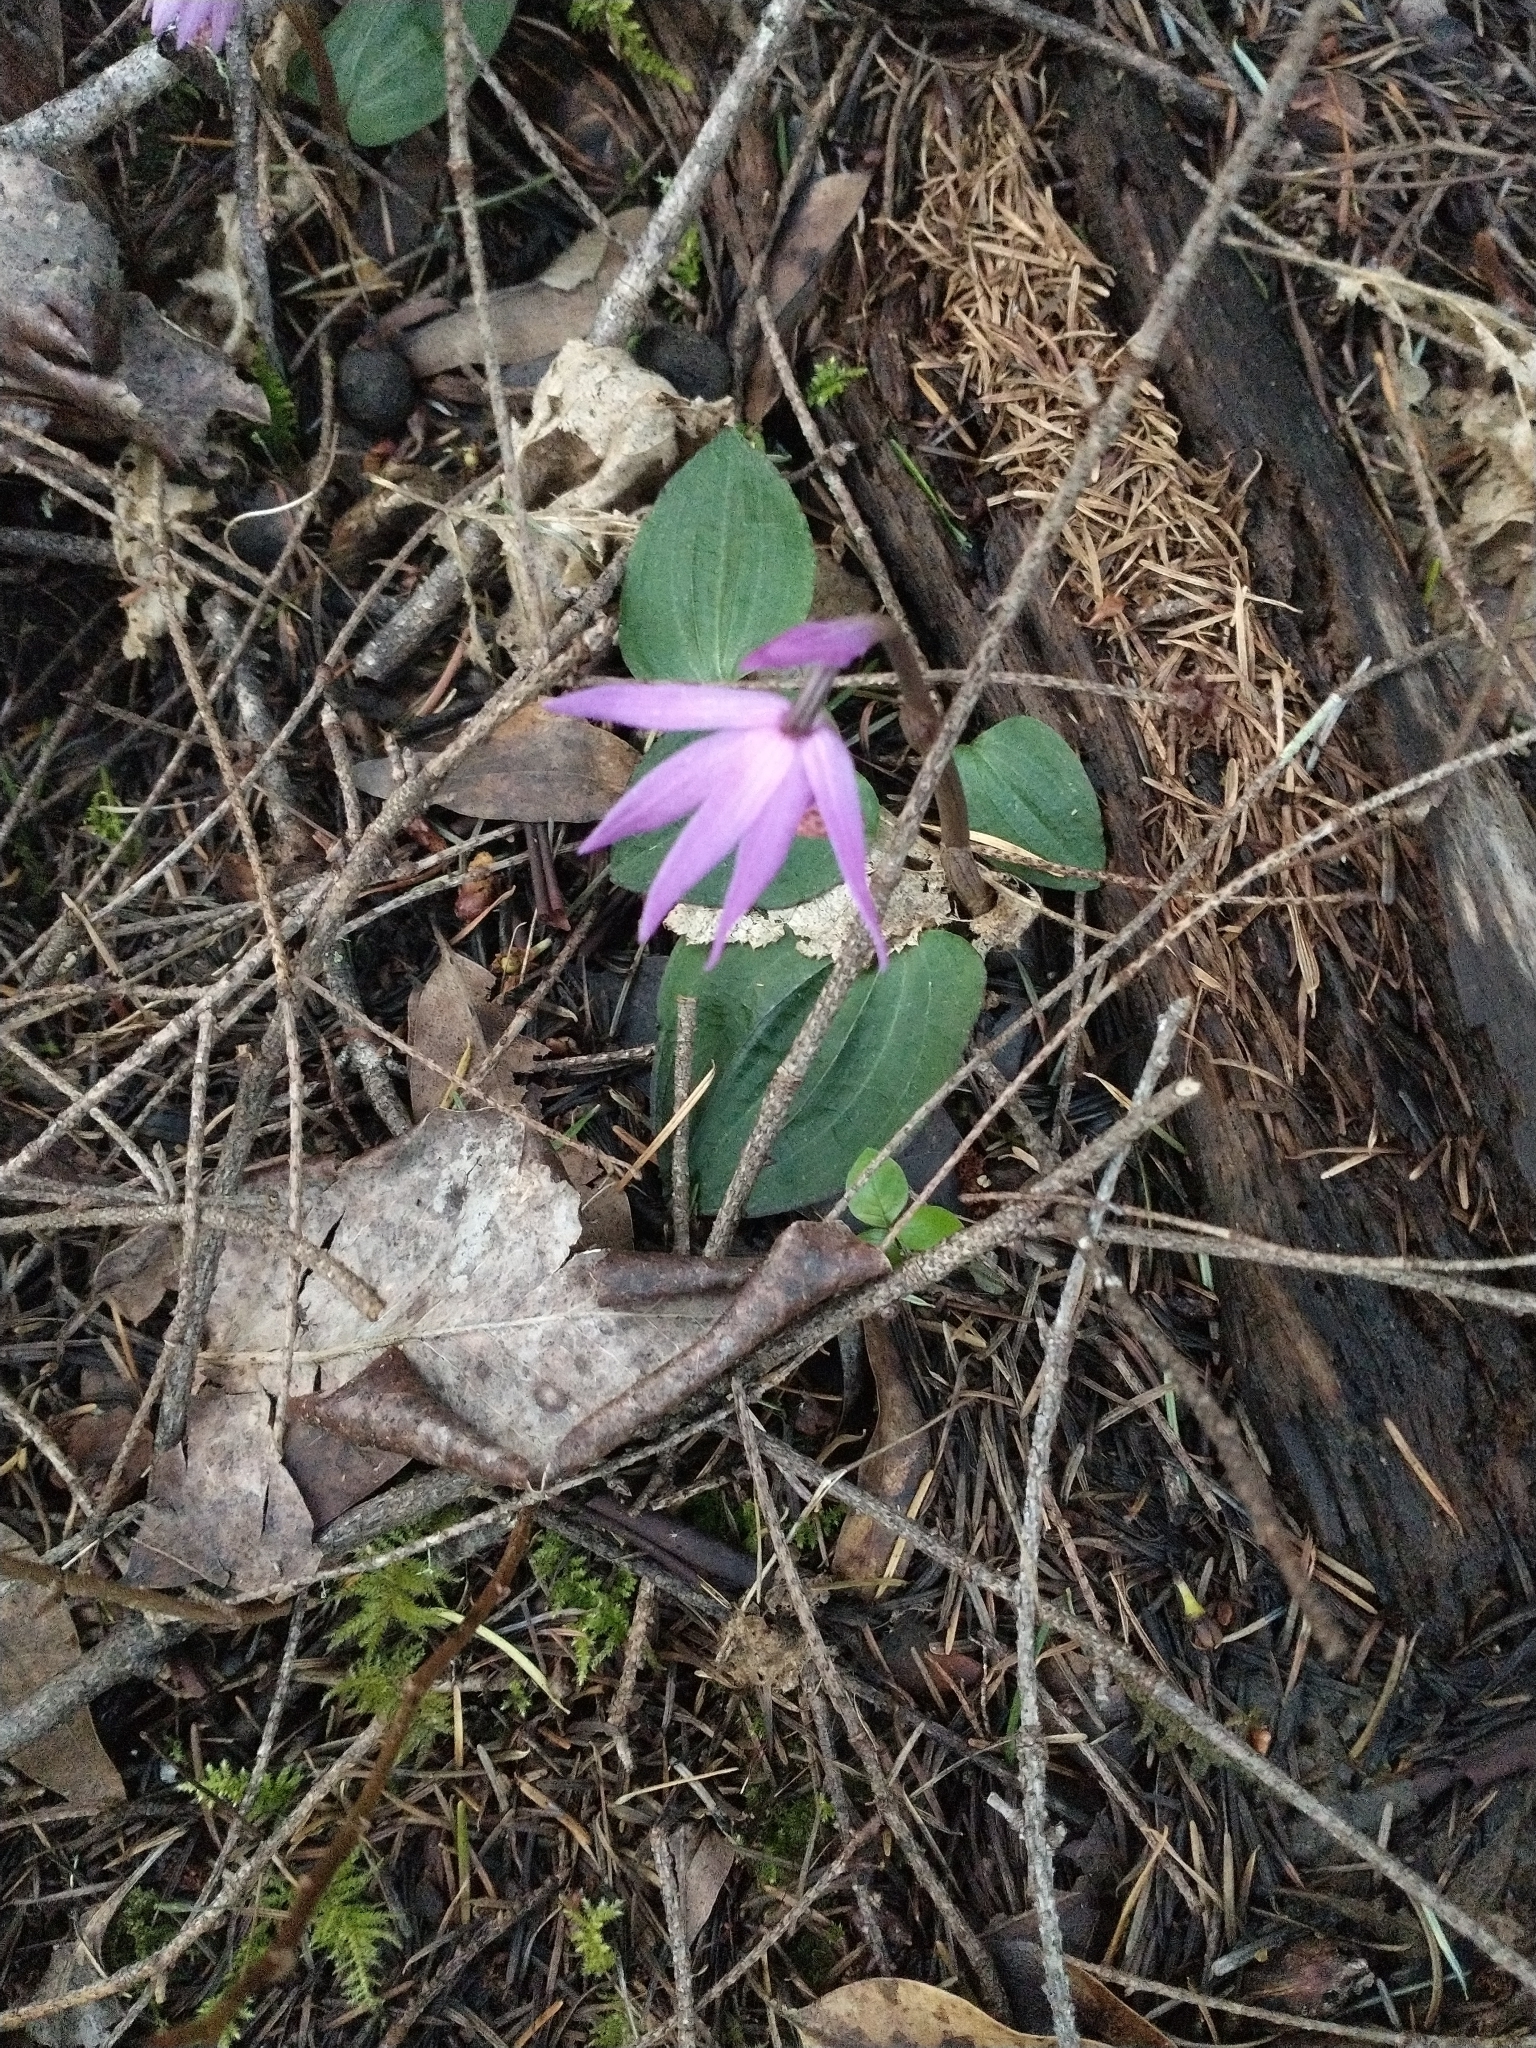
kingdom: Plantae
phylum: Tracheophyta
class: Liliopsida
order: Asparagales
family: Orchidaceae
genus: Calypso
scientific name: Calypso bulbosa
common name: Calypso
